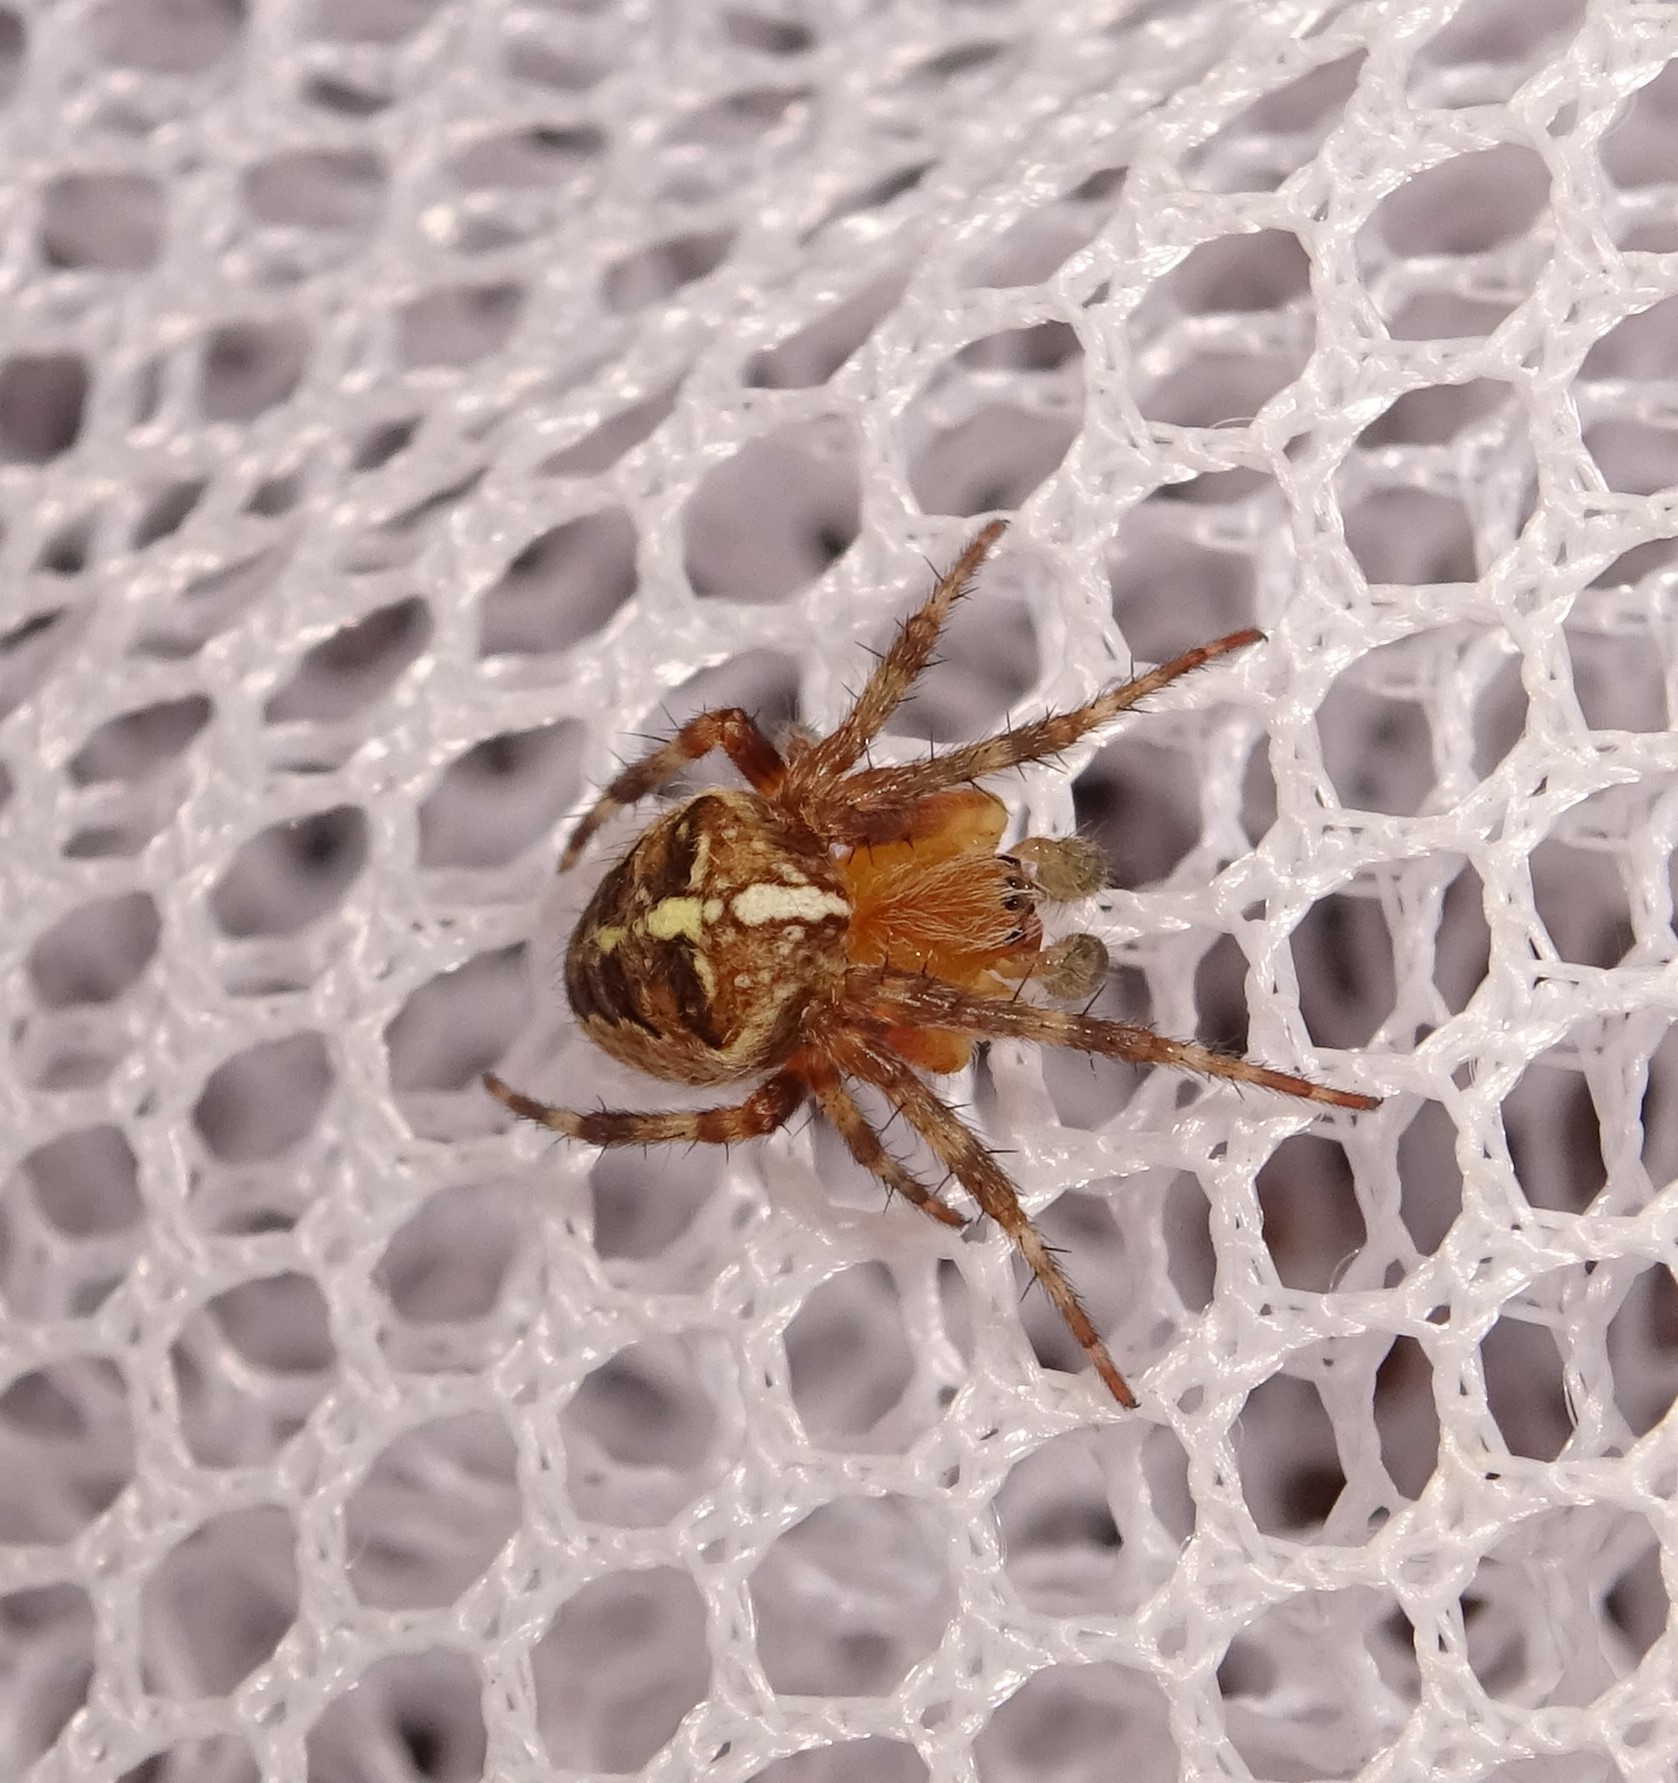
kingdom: Animalia
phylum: Arthropoda
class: Arachnida
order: Araneae
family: Araneidae
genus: Araneus
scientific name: Araneus diadematus
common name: Cross orbweaver
